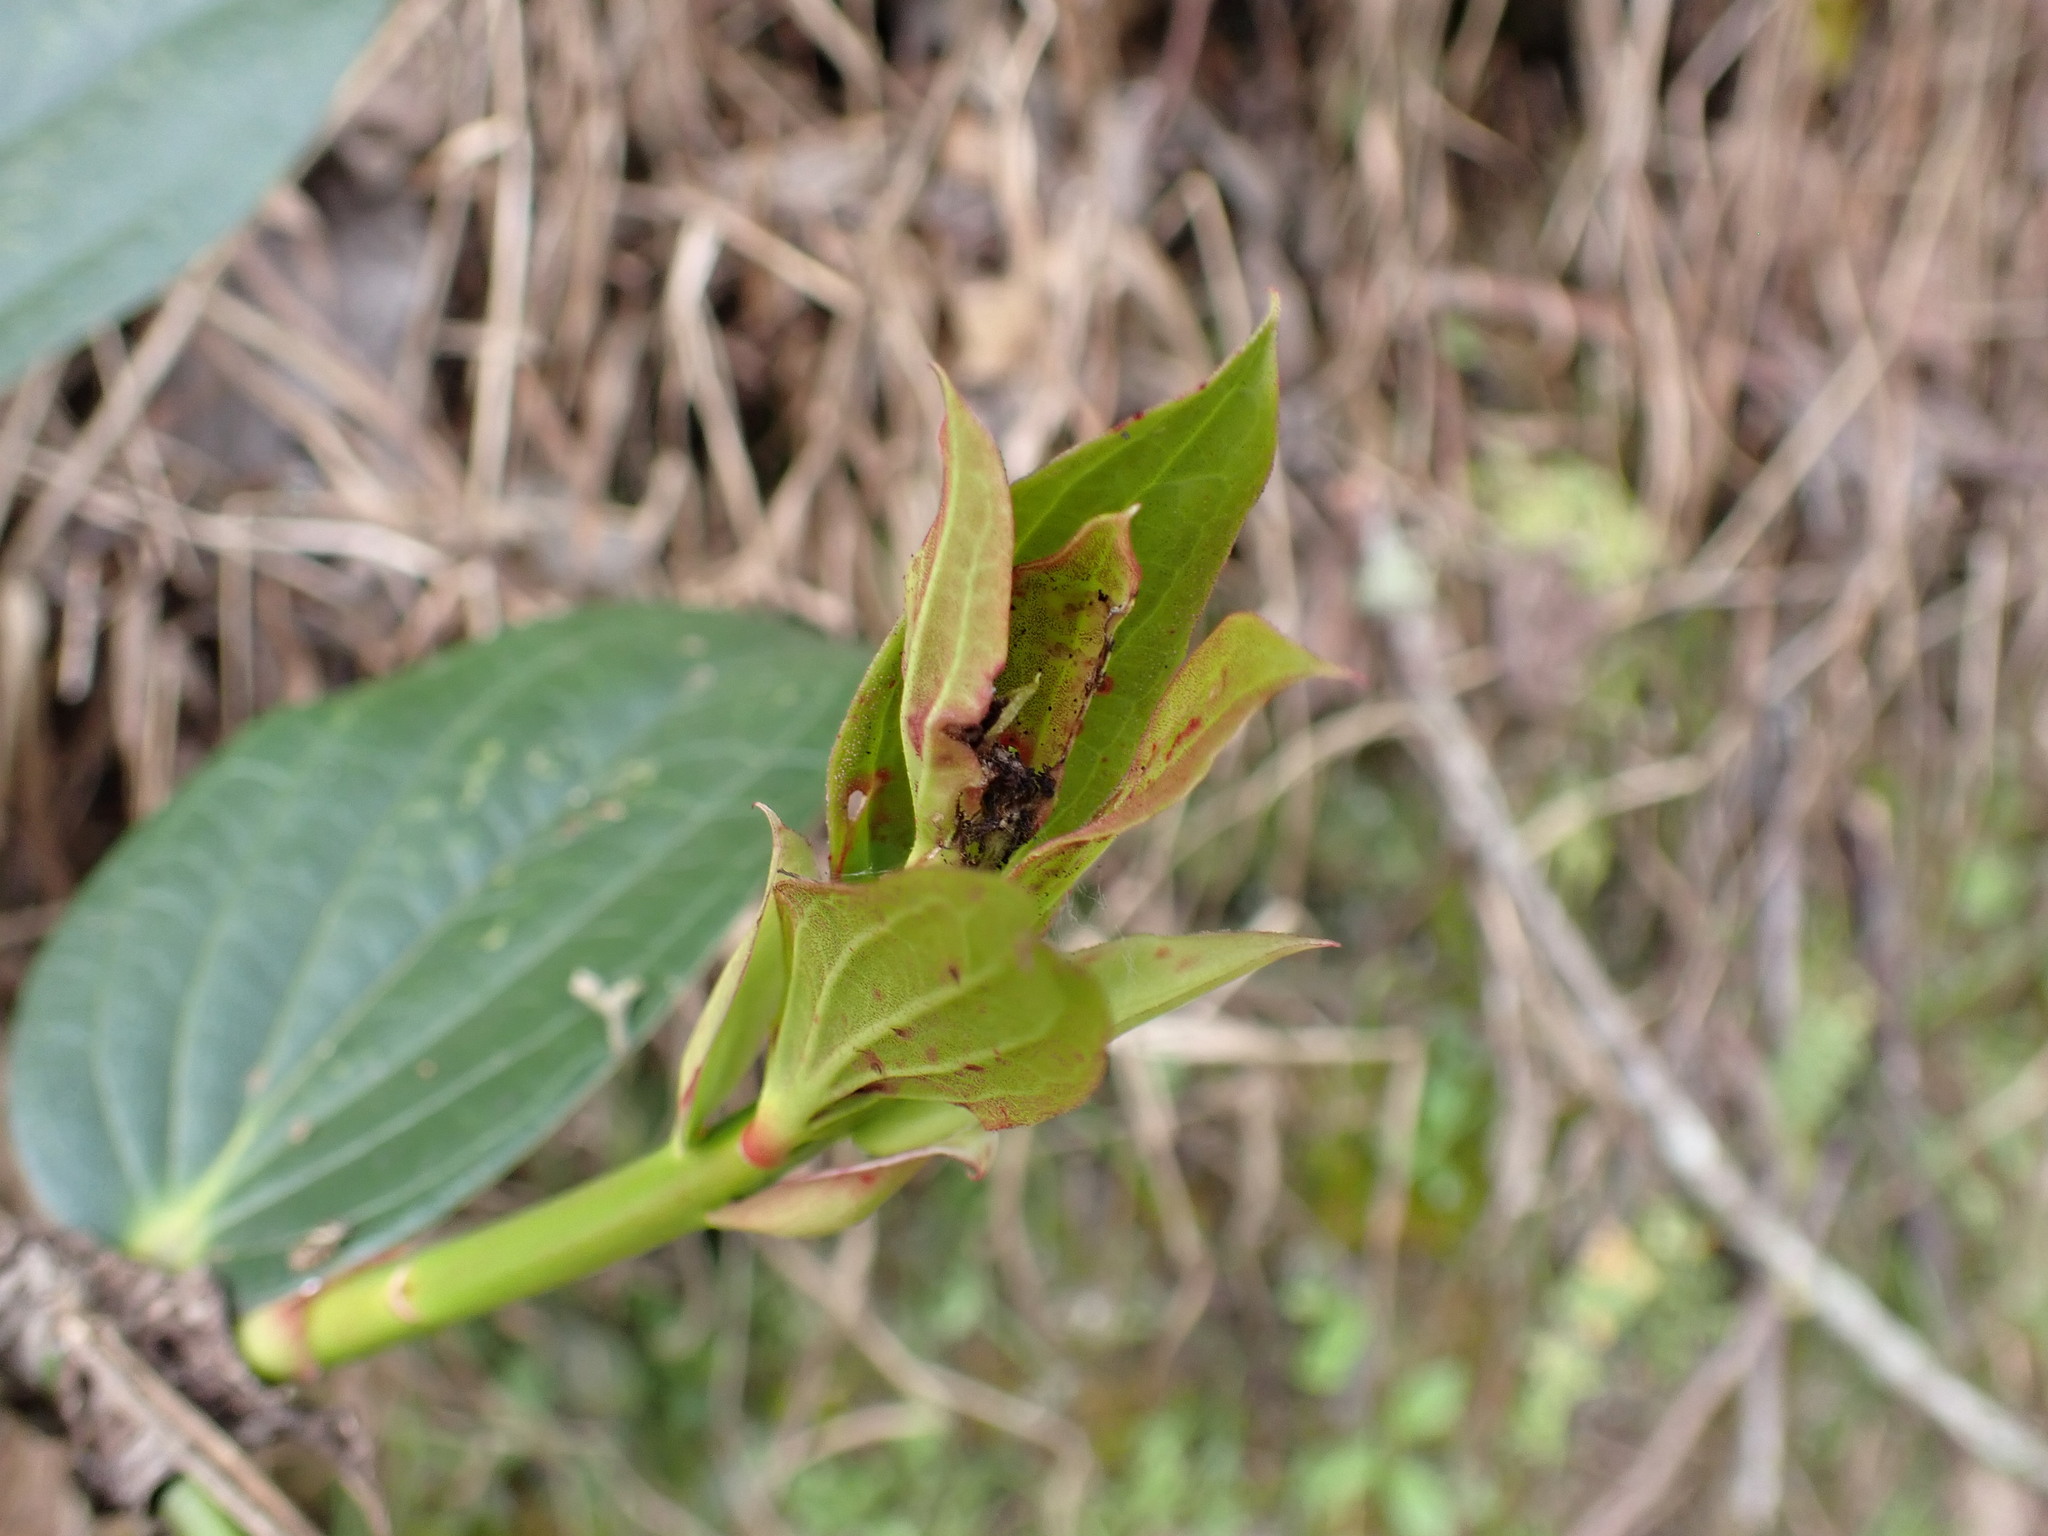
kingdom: Plantae
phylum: Tracheophyta
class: Liliopsida
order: Liliales
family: Smilacaceae
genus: Smilax
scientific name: Smilax purhampuy
